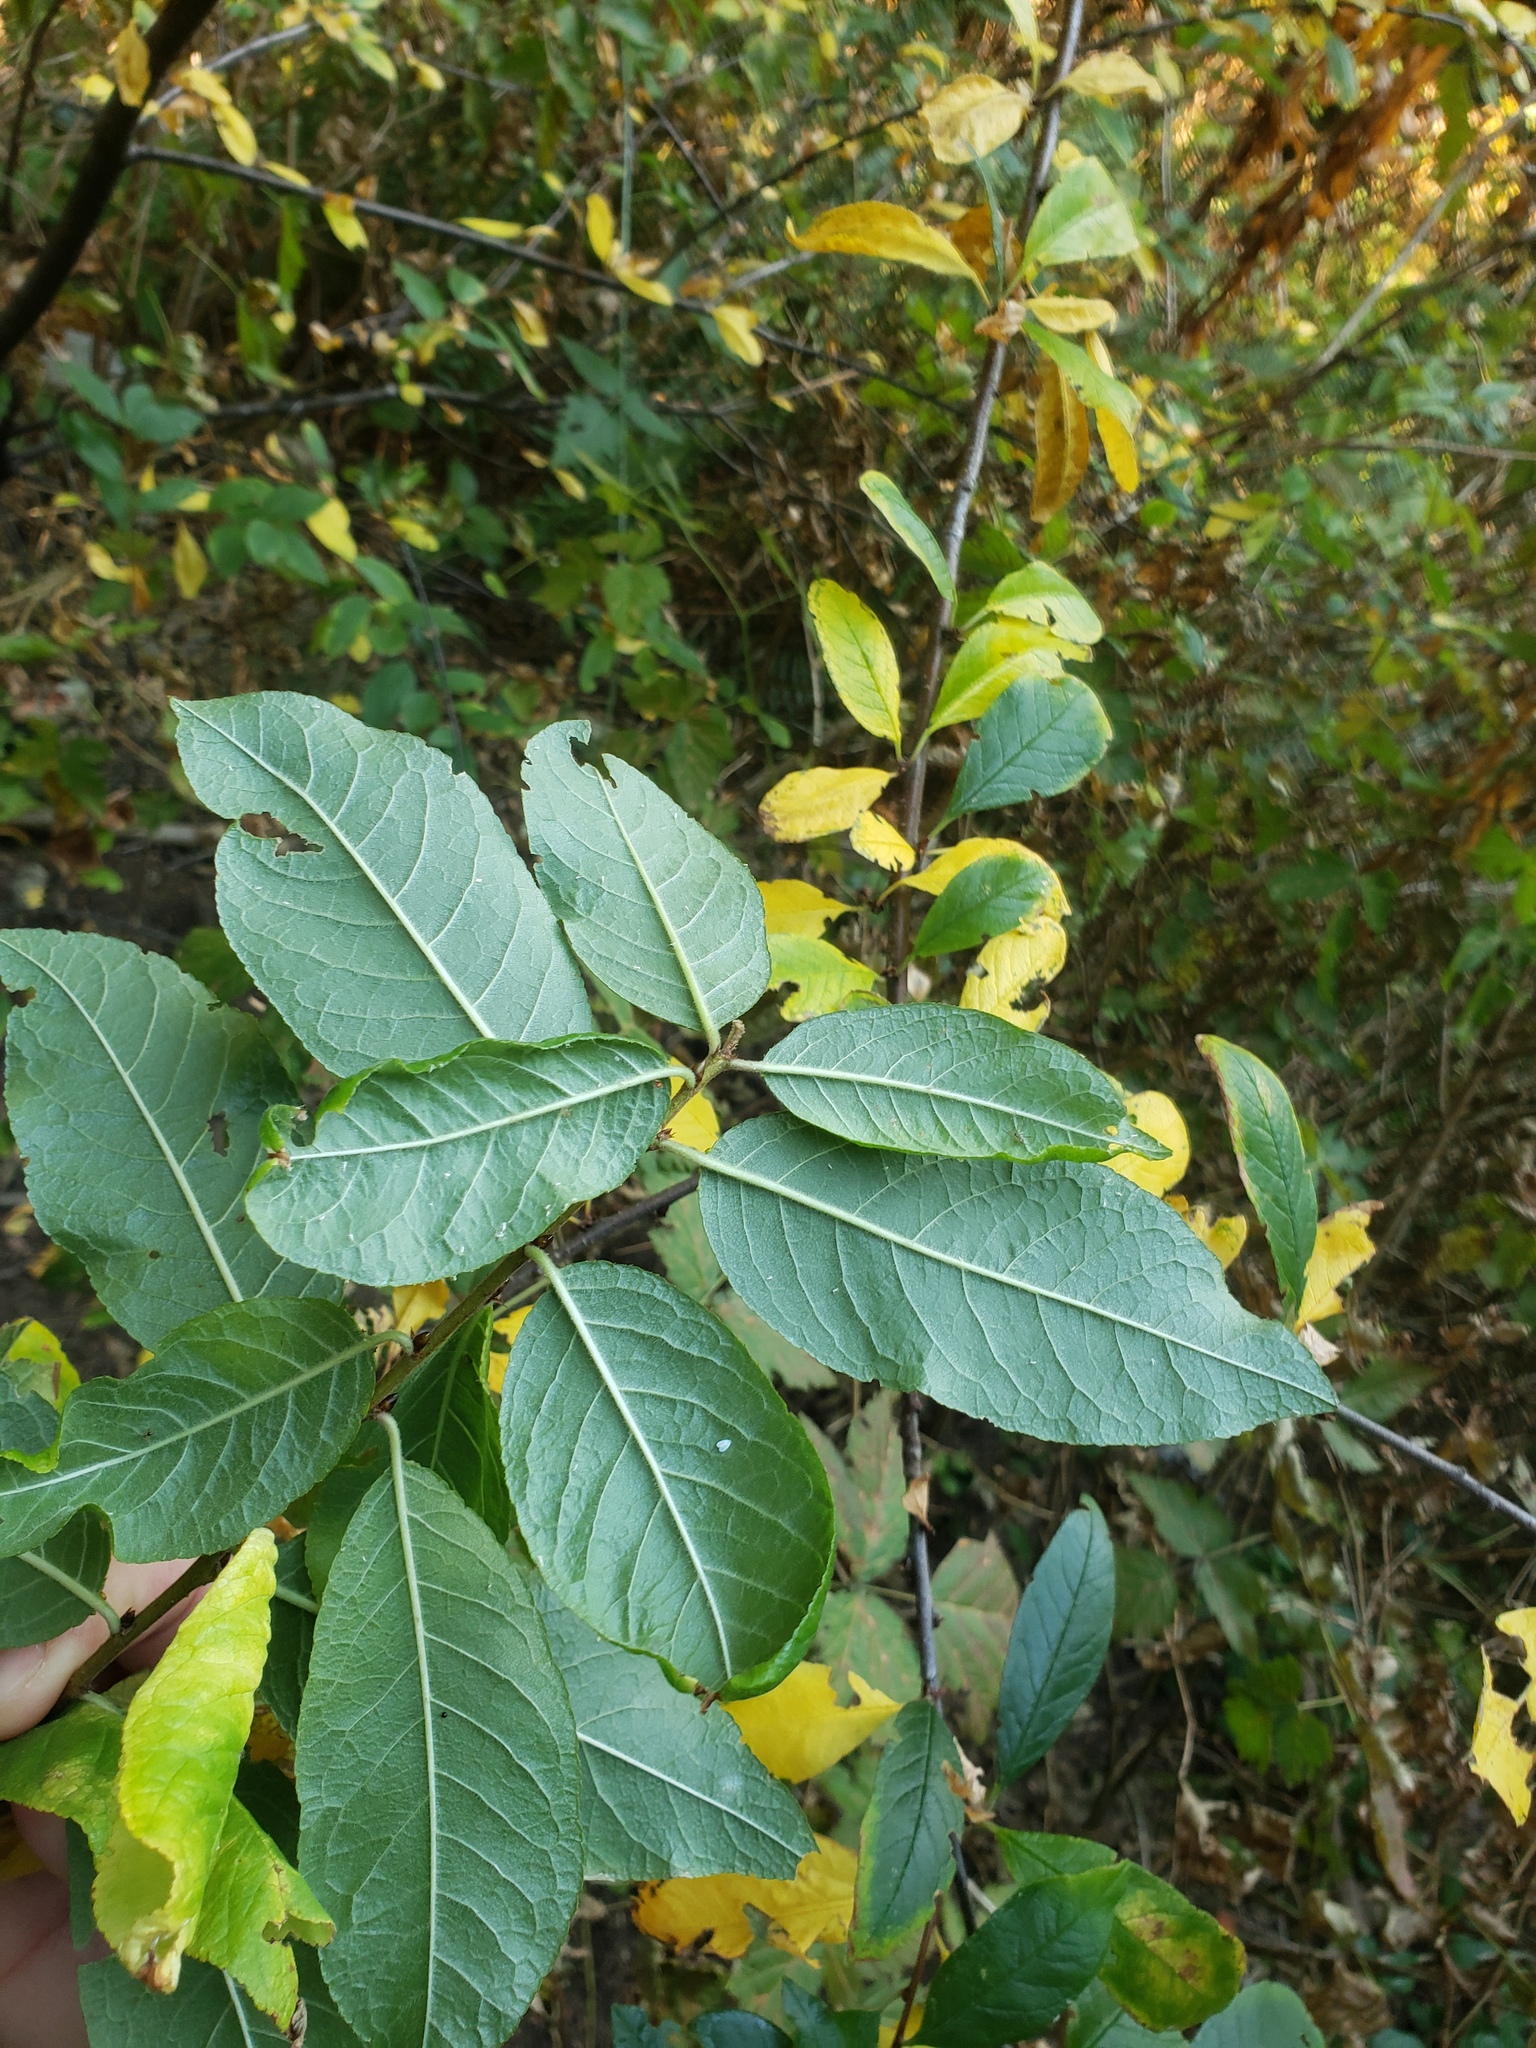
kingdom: Plantae
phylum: Tracheophyta
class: Magnoliopsida
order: Rosales
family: Rosaceae
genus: Prunus
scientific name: Prunus emarginata
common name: Bitter cherry
